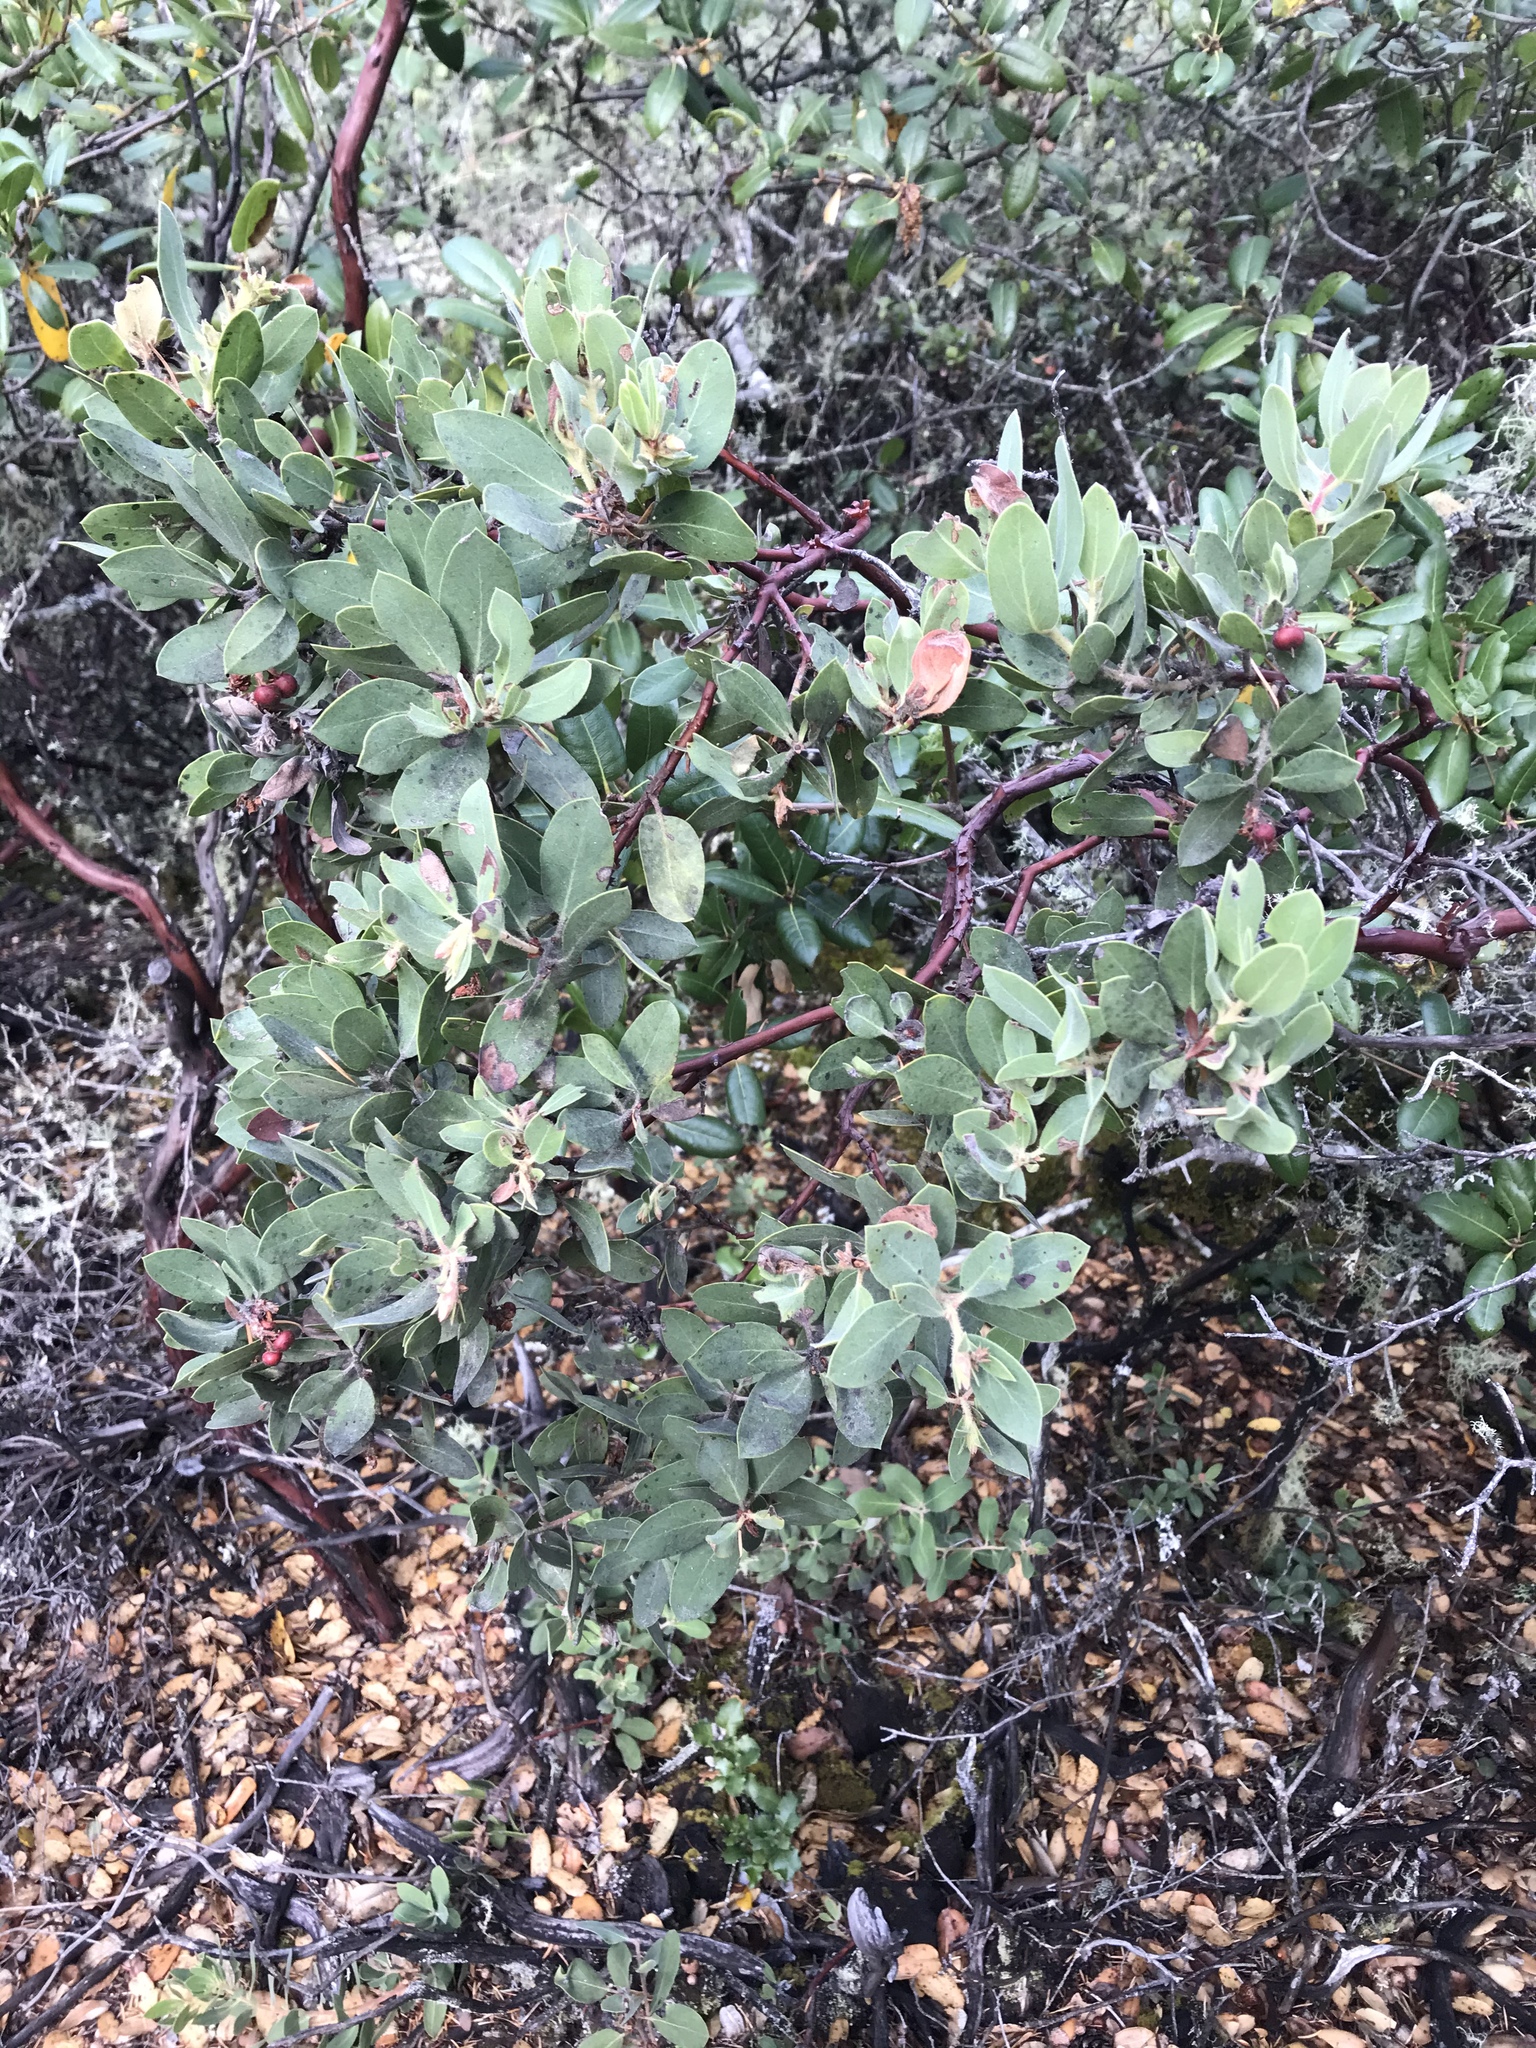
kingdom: Plantae
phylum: Tracheophyta
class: Magnoliopsida
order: Ericales
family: Ericaceae
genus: Arctostaphylos
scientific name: Arctostaphylos glandulosa
